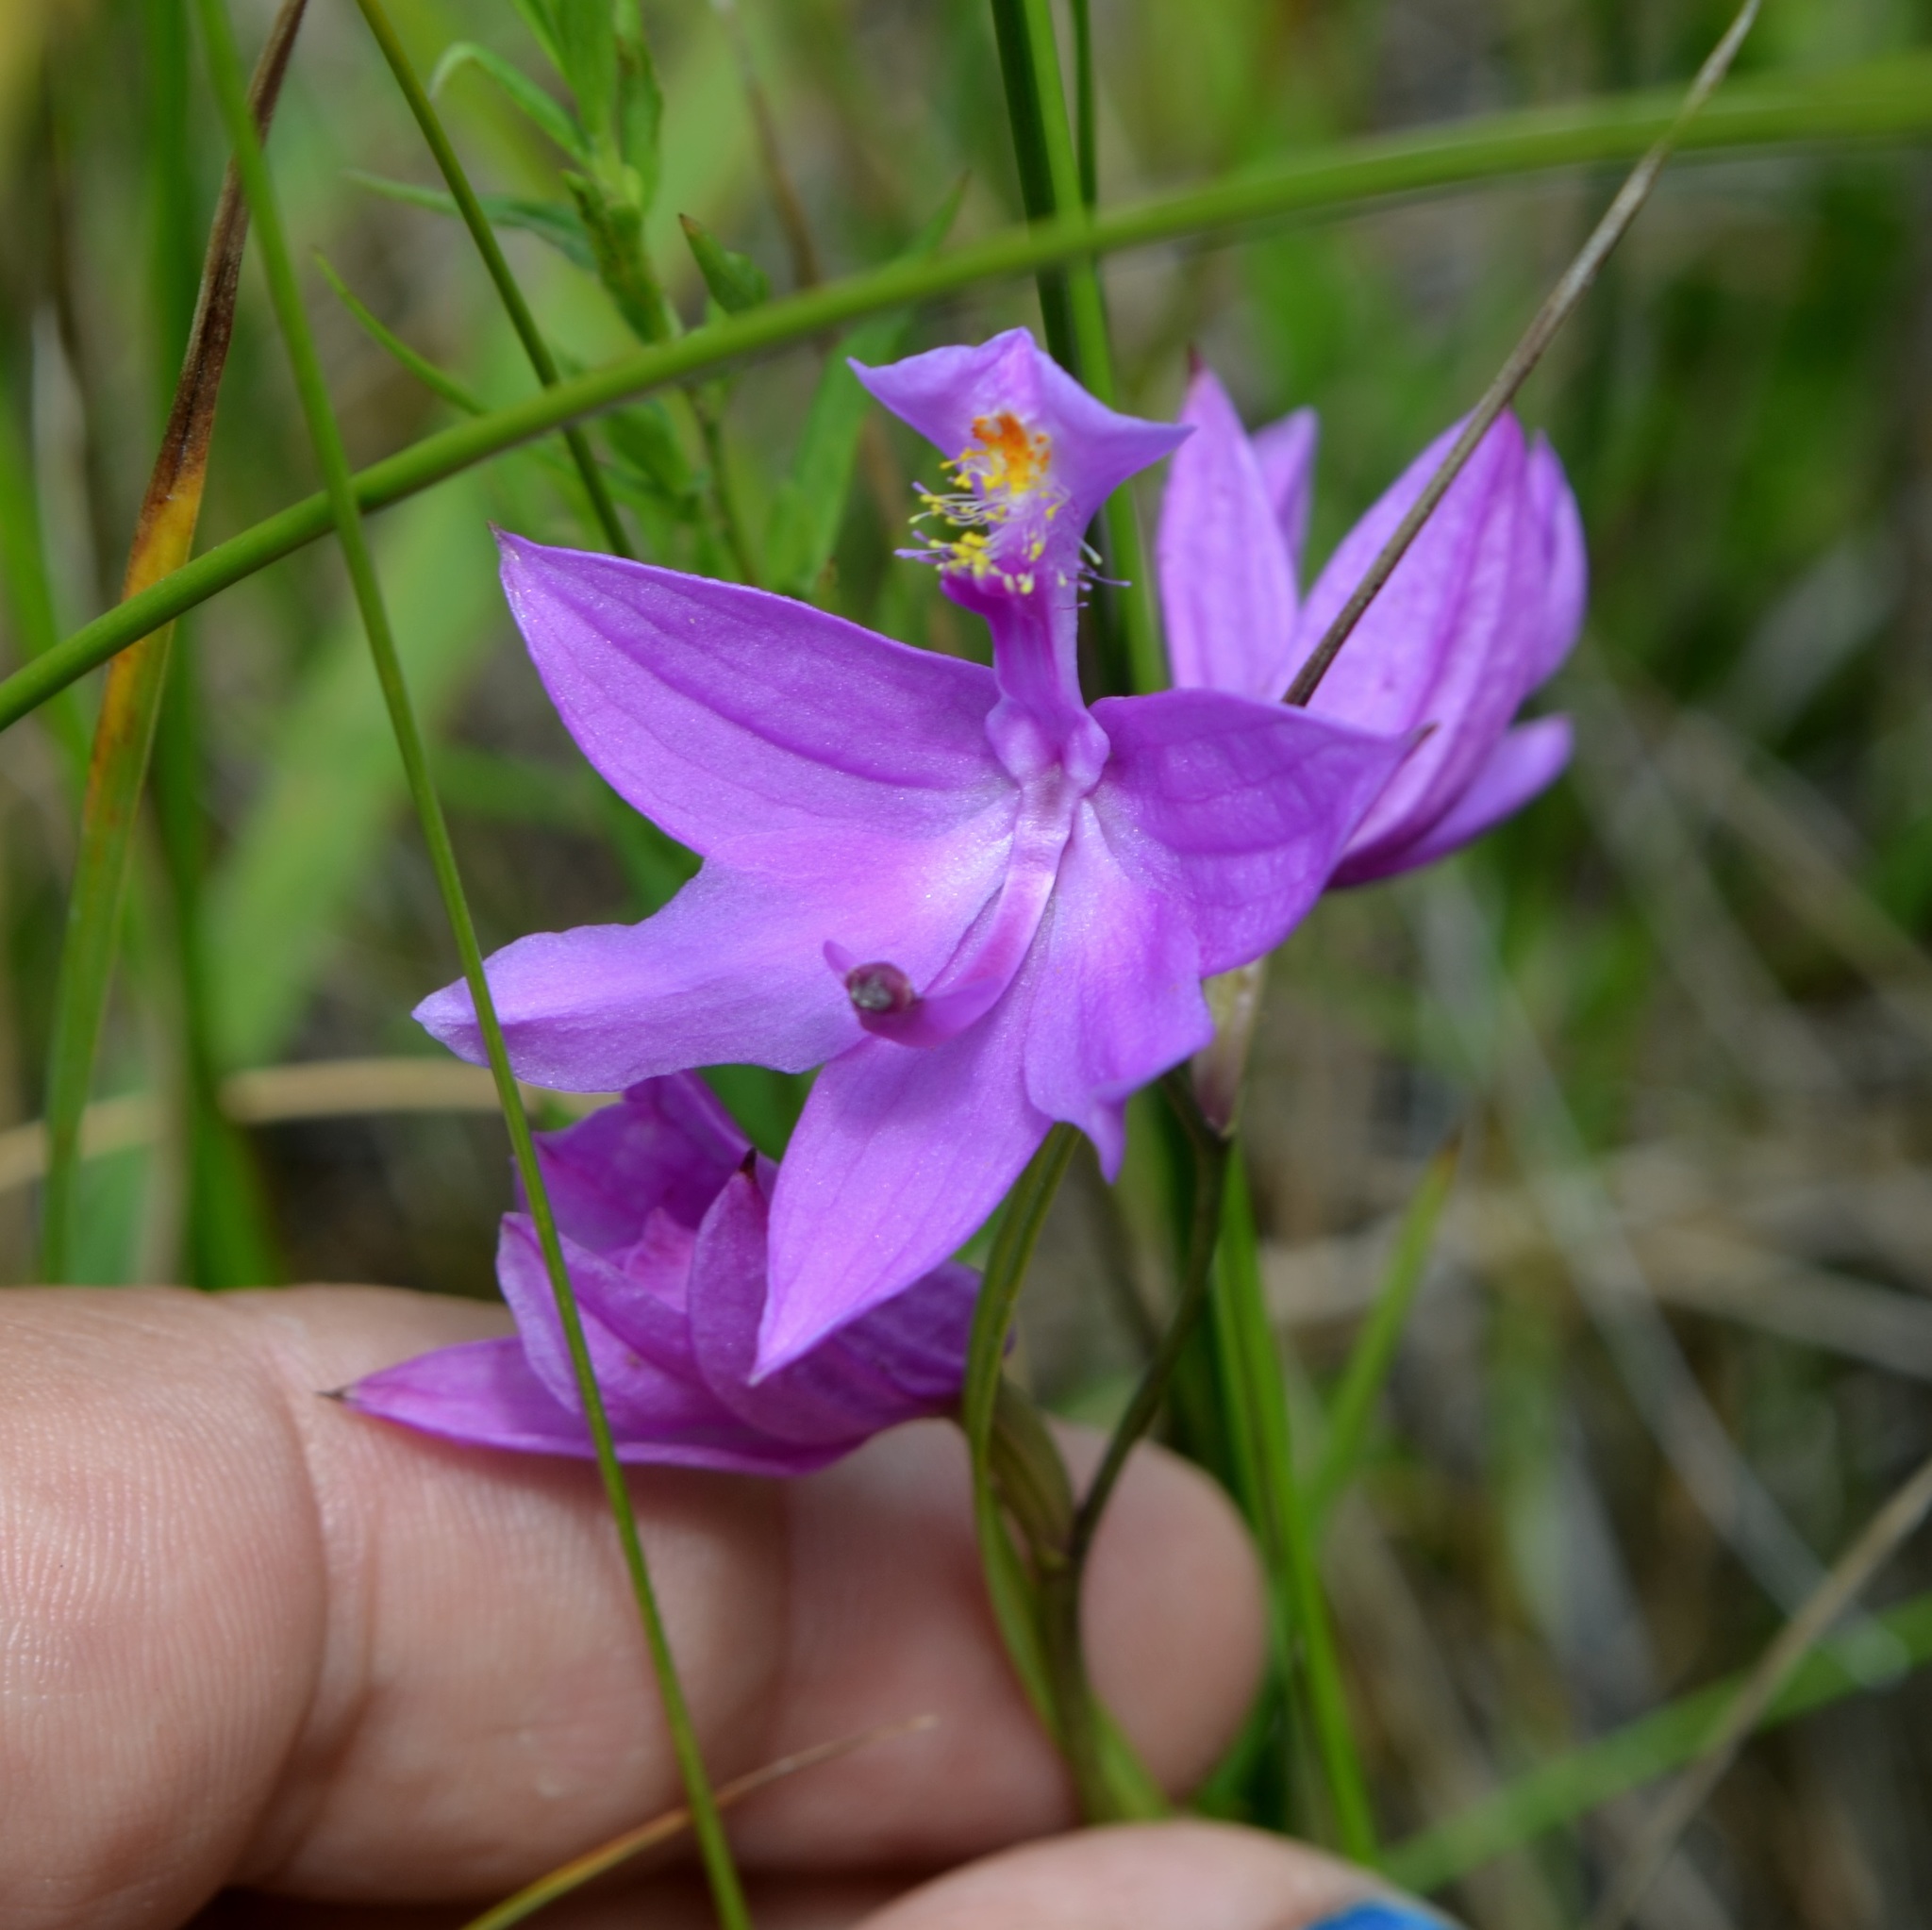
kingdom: Plantae
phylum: Tracheophyta
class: Liliopsida
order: Asparagales
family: Orchidaceae
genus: Calopogon
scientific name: Calopogon tuberosus
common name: Grass-pink
